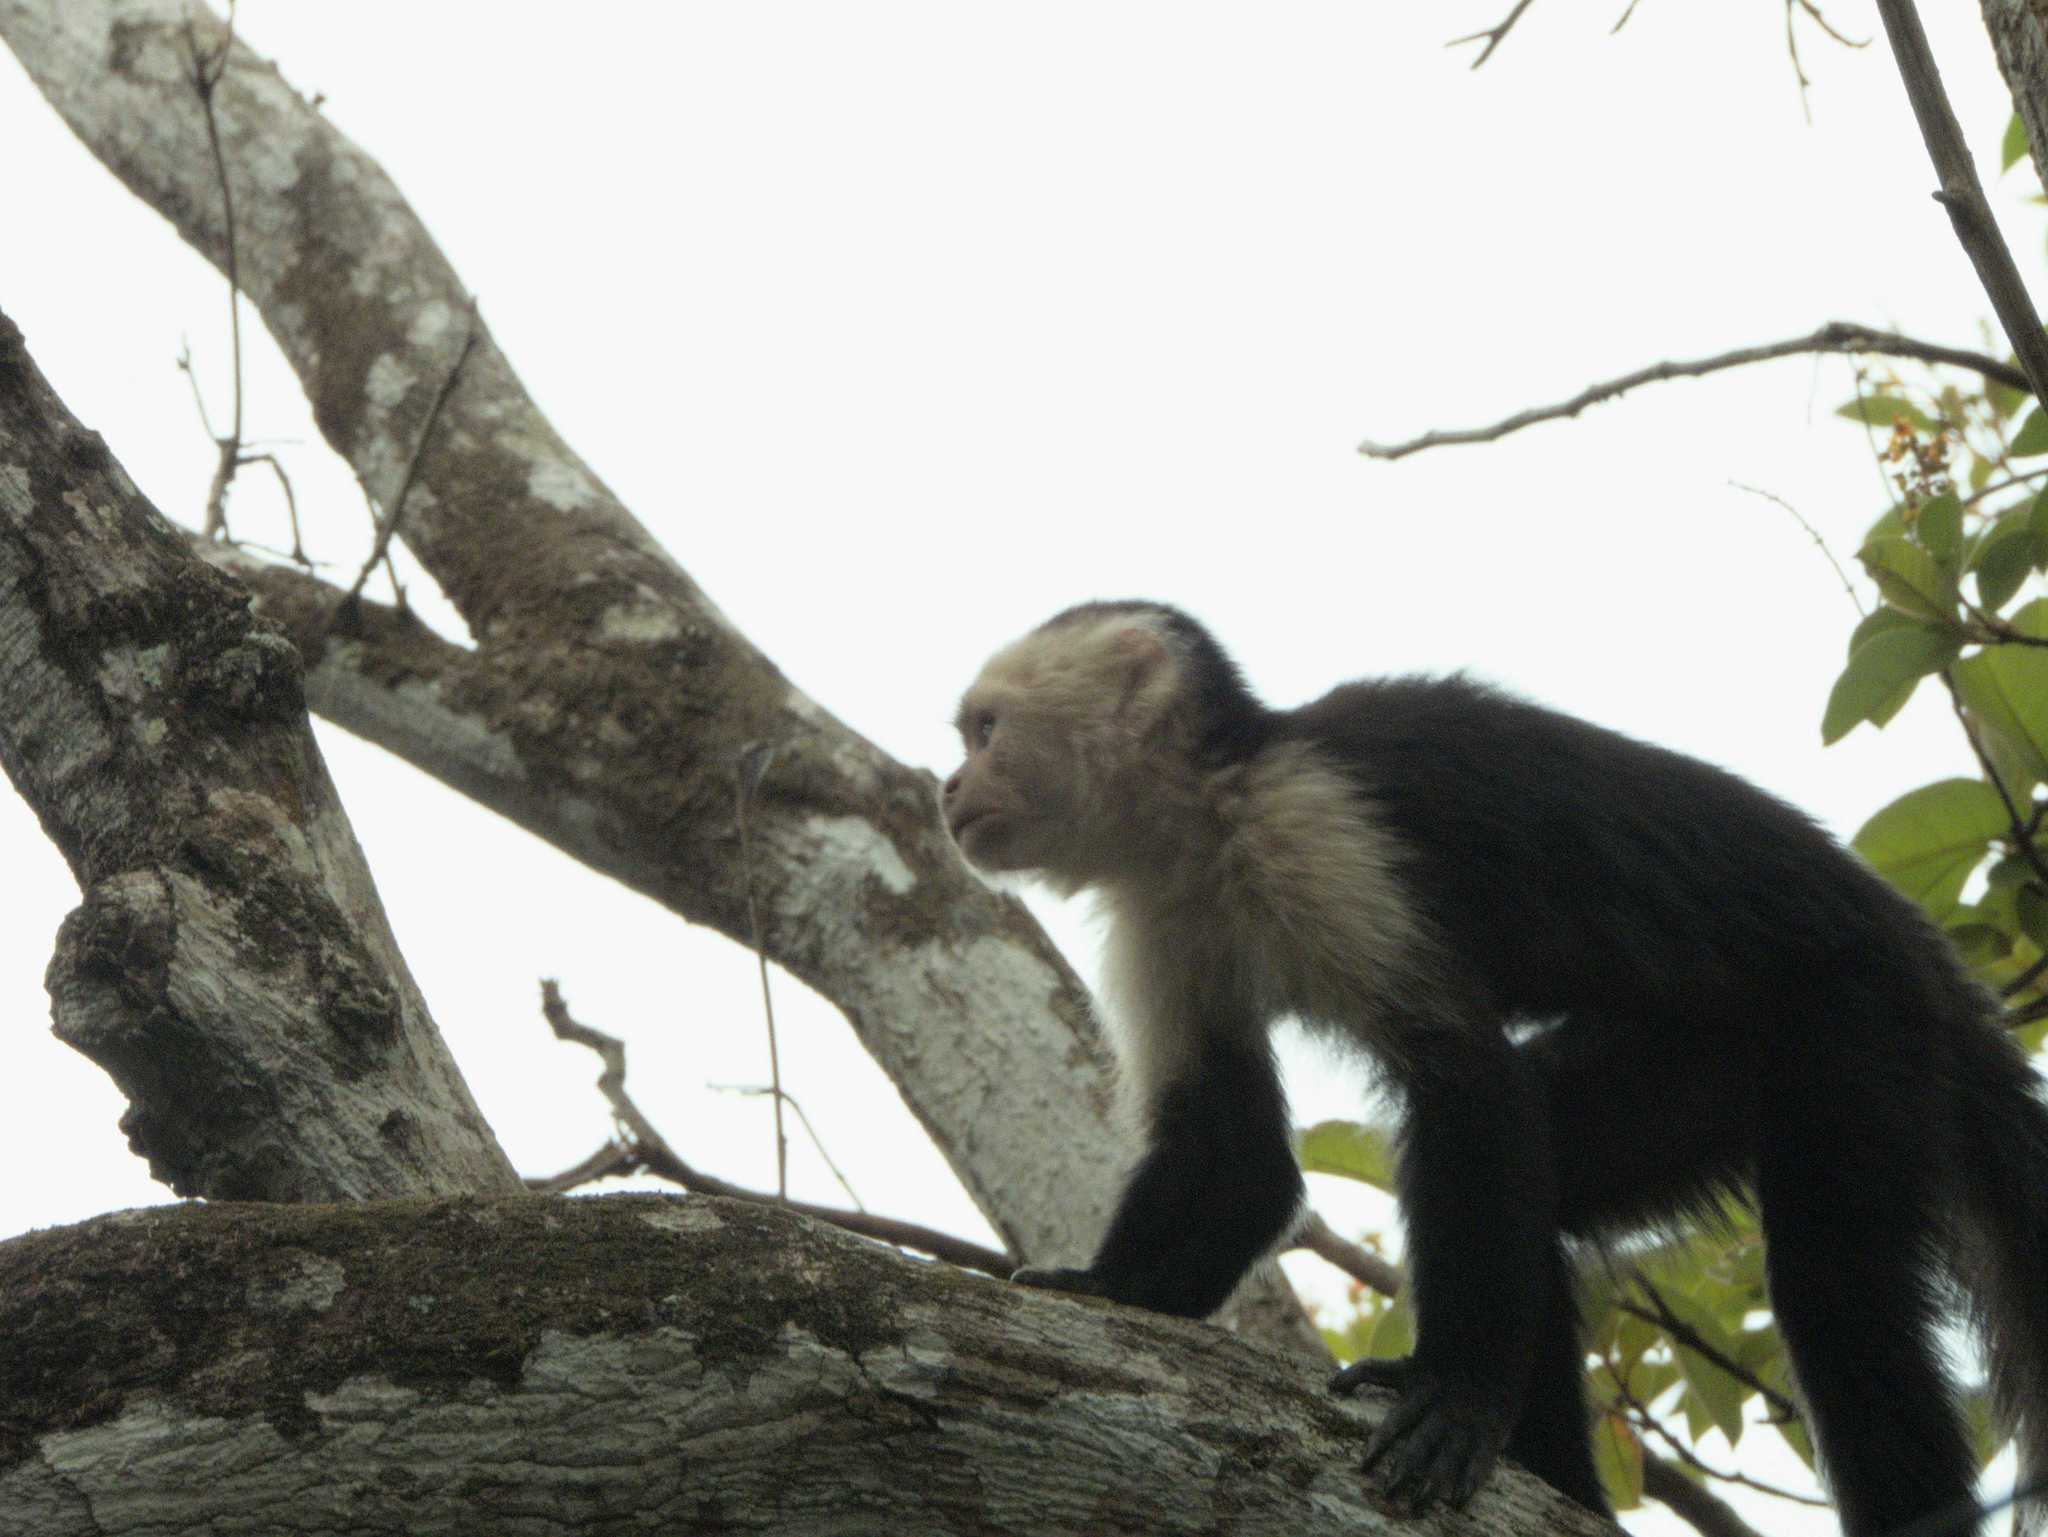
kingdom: Animalia
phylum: Chordata
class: Mammalia
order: Primates
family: Cebidae
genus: Cebus
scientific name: Cebus imitator
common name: Panamanian white-faced capuchin
